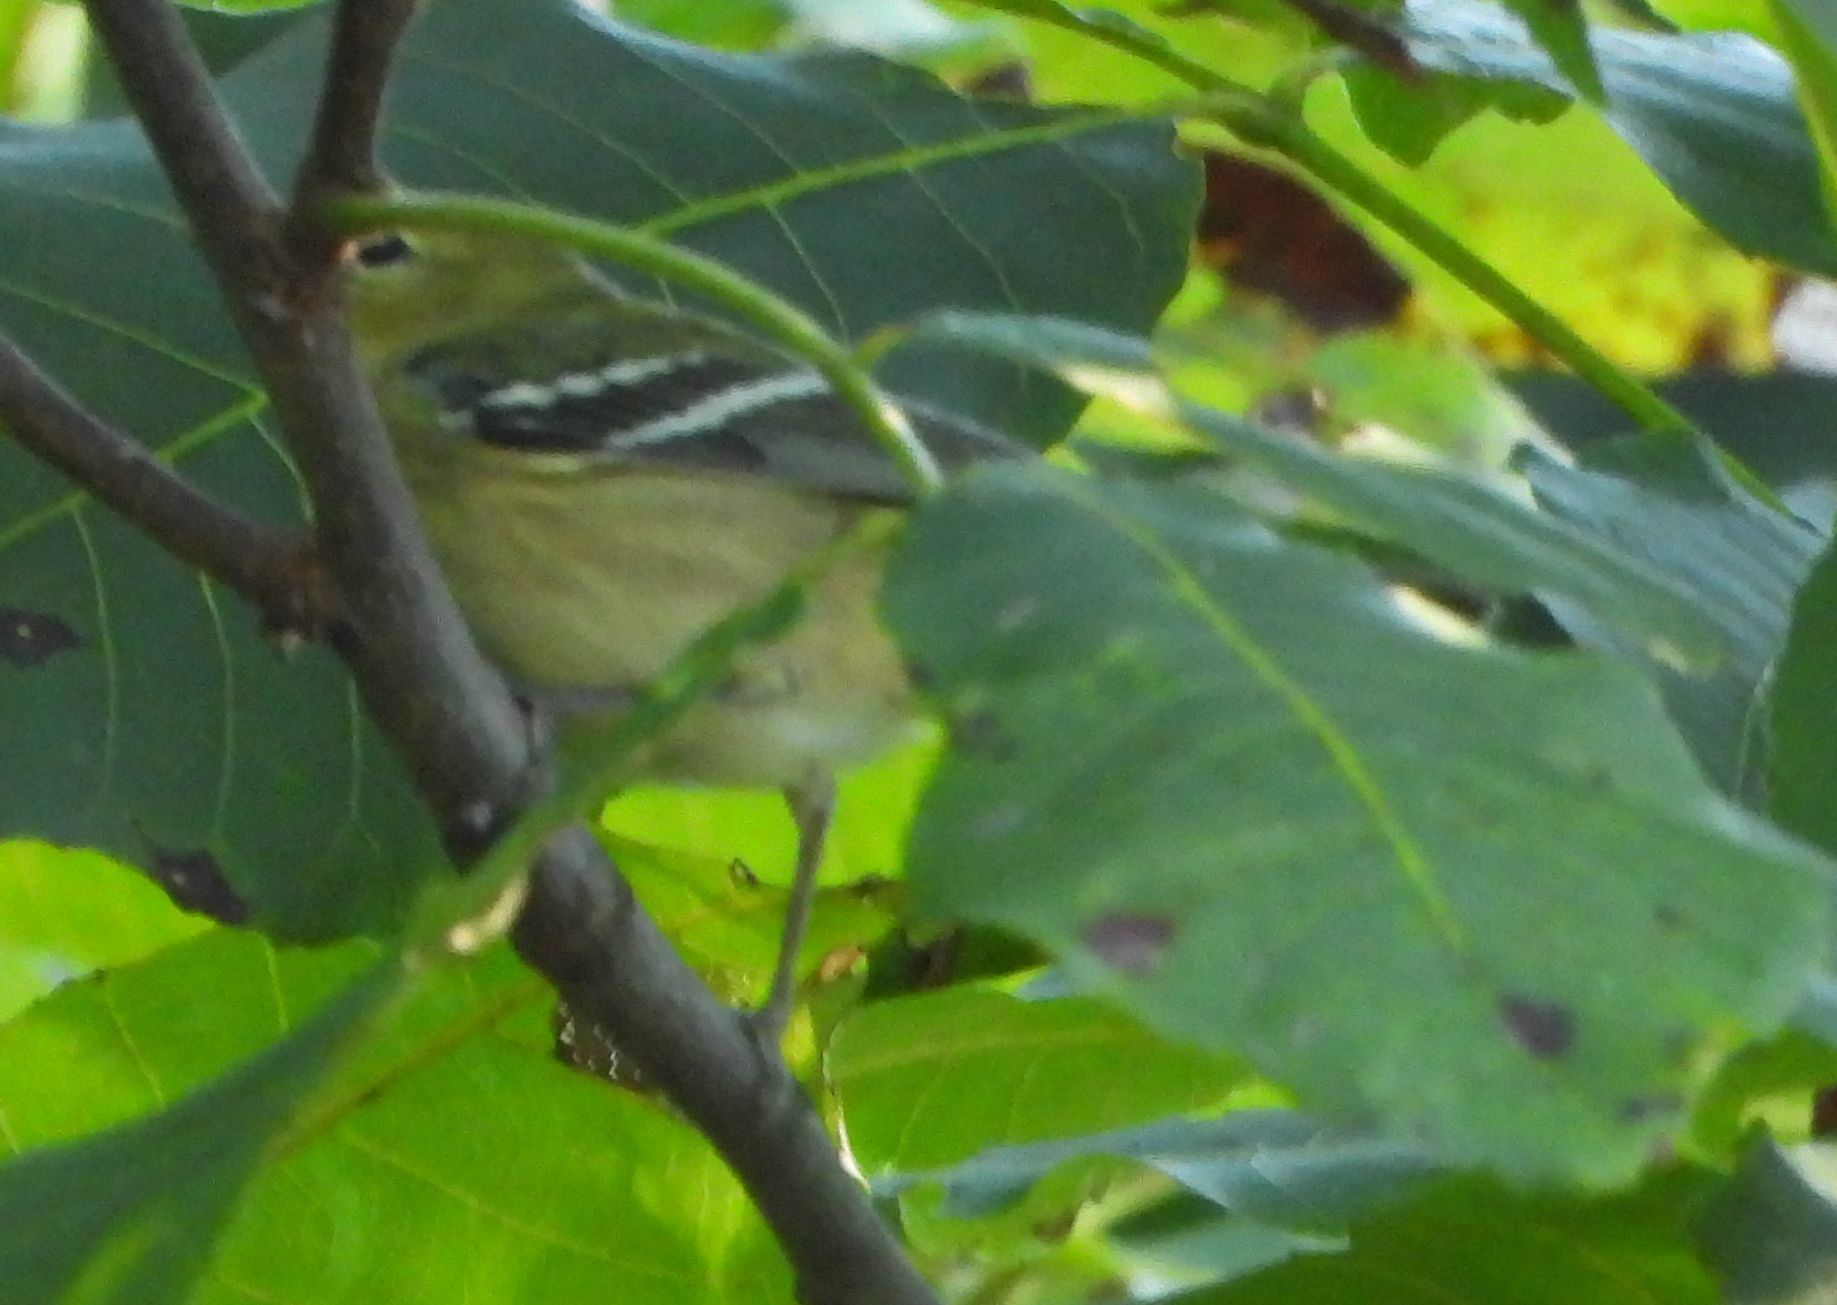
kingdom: Animalia
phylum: Chordata
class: Aves
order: Passeriformes
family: Parulidae
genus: Setophaga
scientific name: Setophaga castanea
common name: Bay-breasted warbler
